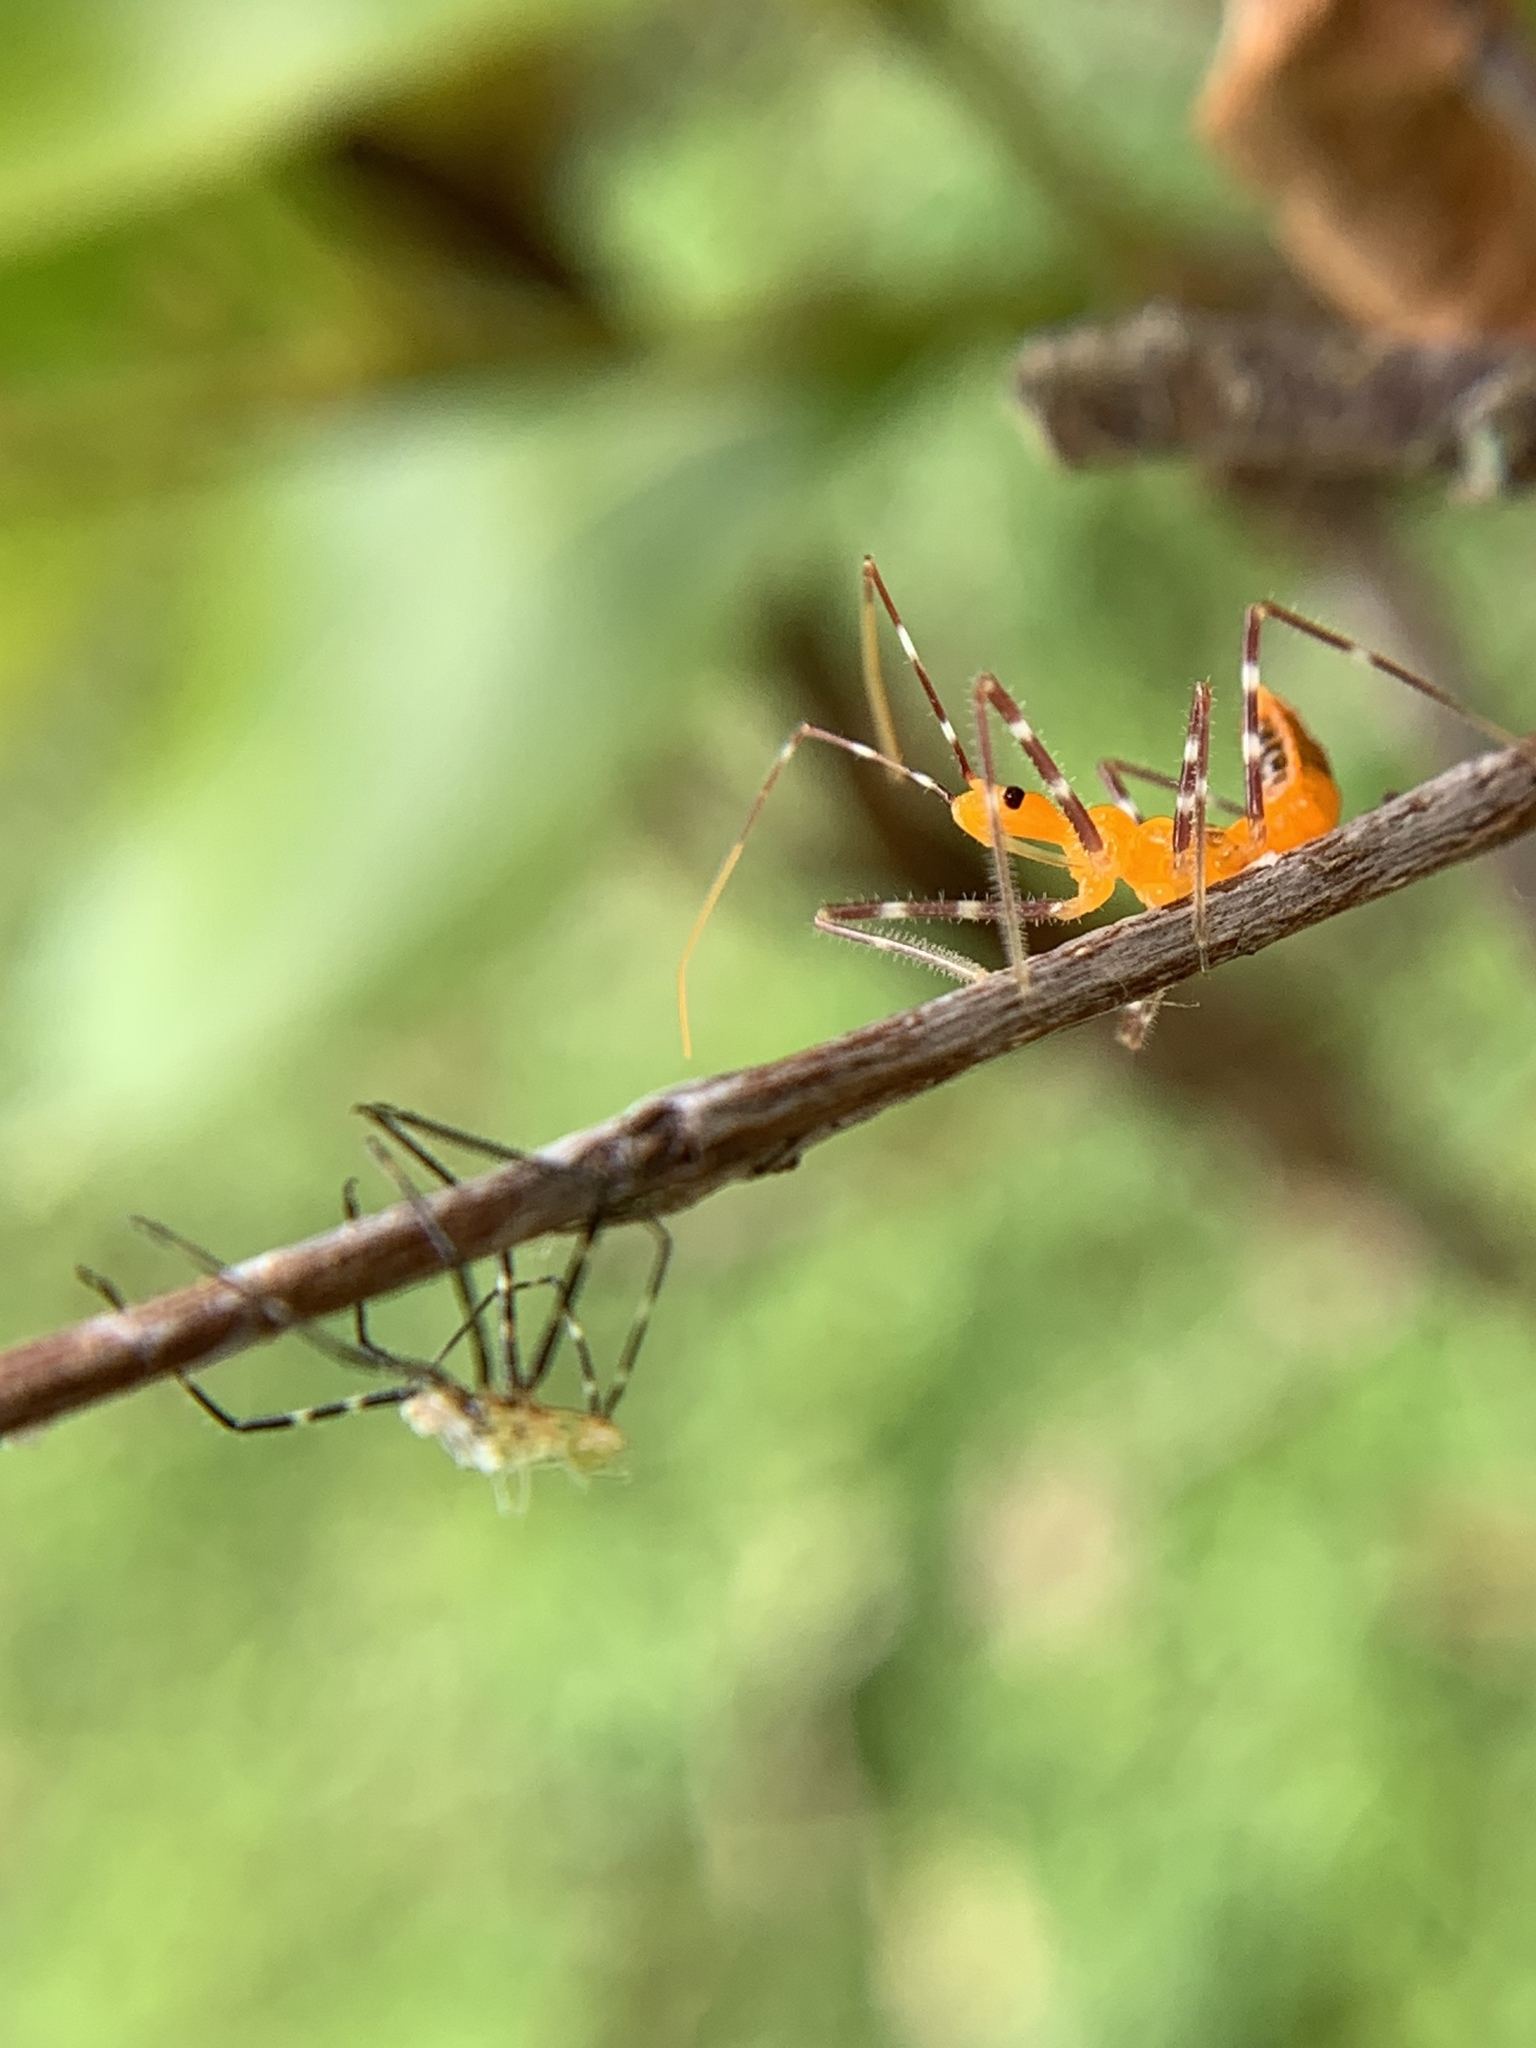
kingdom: Animalia
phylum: Arthropoda
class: Insecta
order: Hemiptera
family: Reduviidae
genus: Zelus
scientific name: Zelus longipes
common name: Milkweed assassin bug
